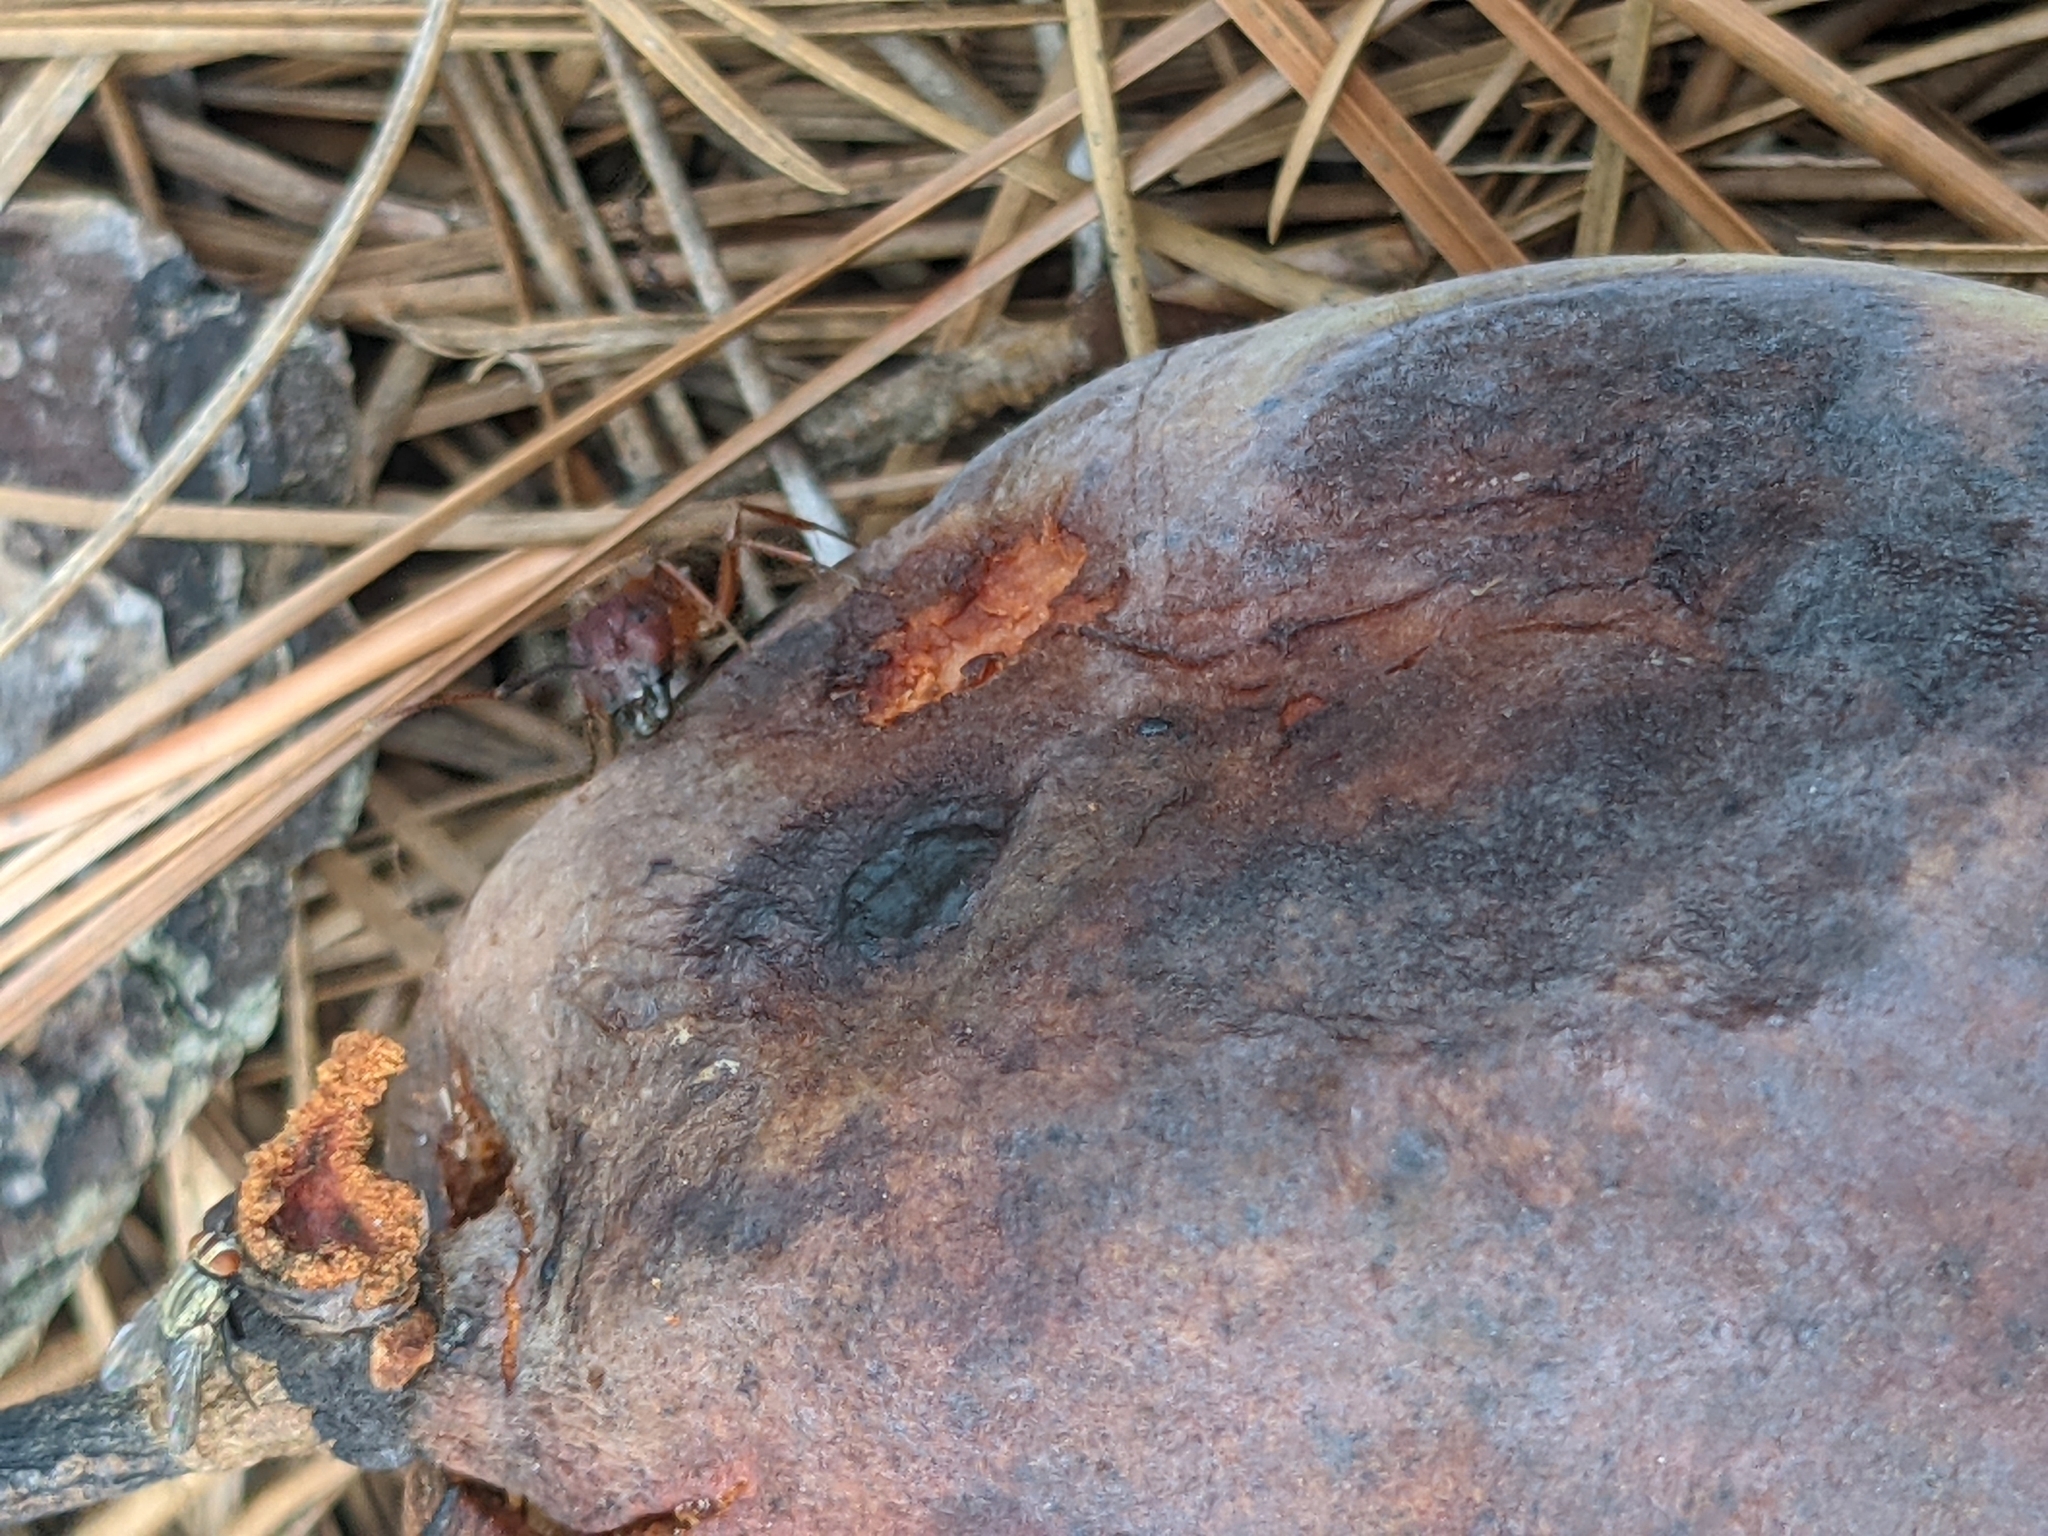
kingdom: Animalia
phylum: Arthropoda
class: Insecta
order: Hymenoptera
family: Formicidae
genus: Camponotus
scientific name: Camponotus floridanus
